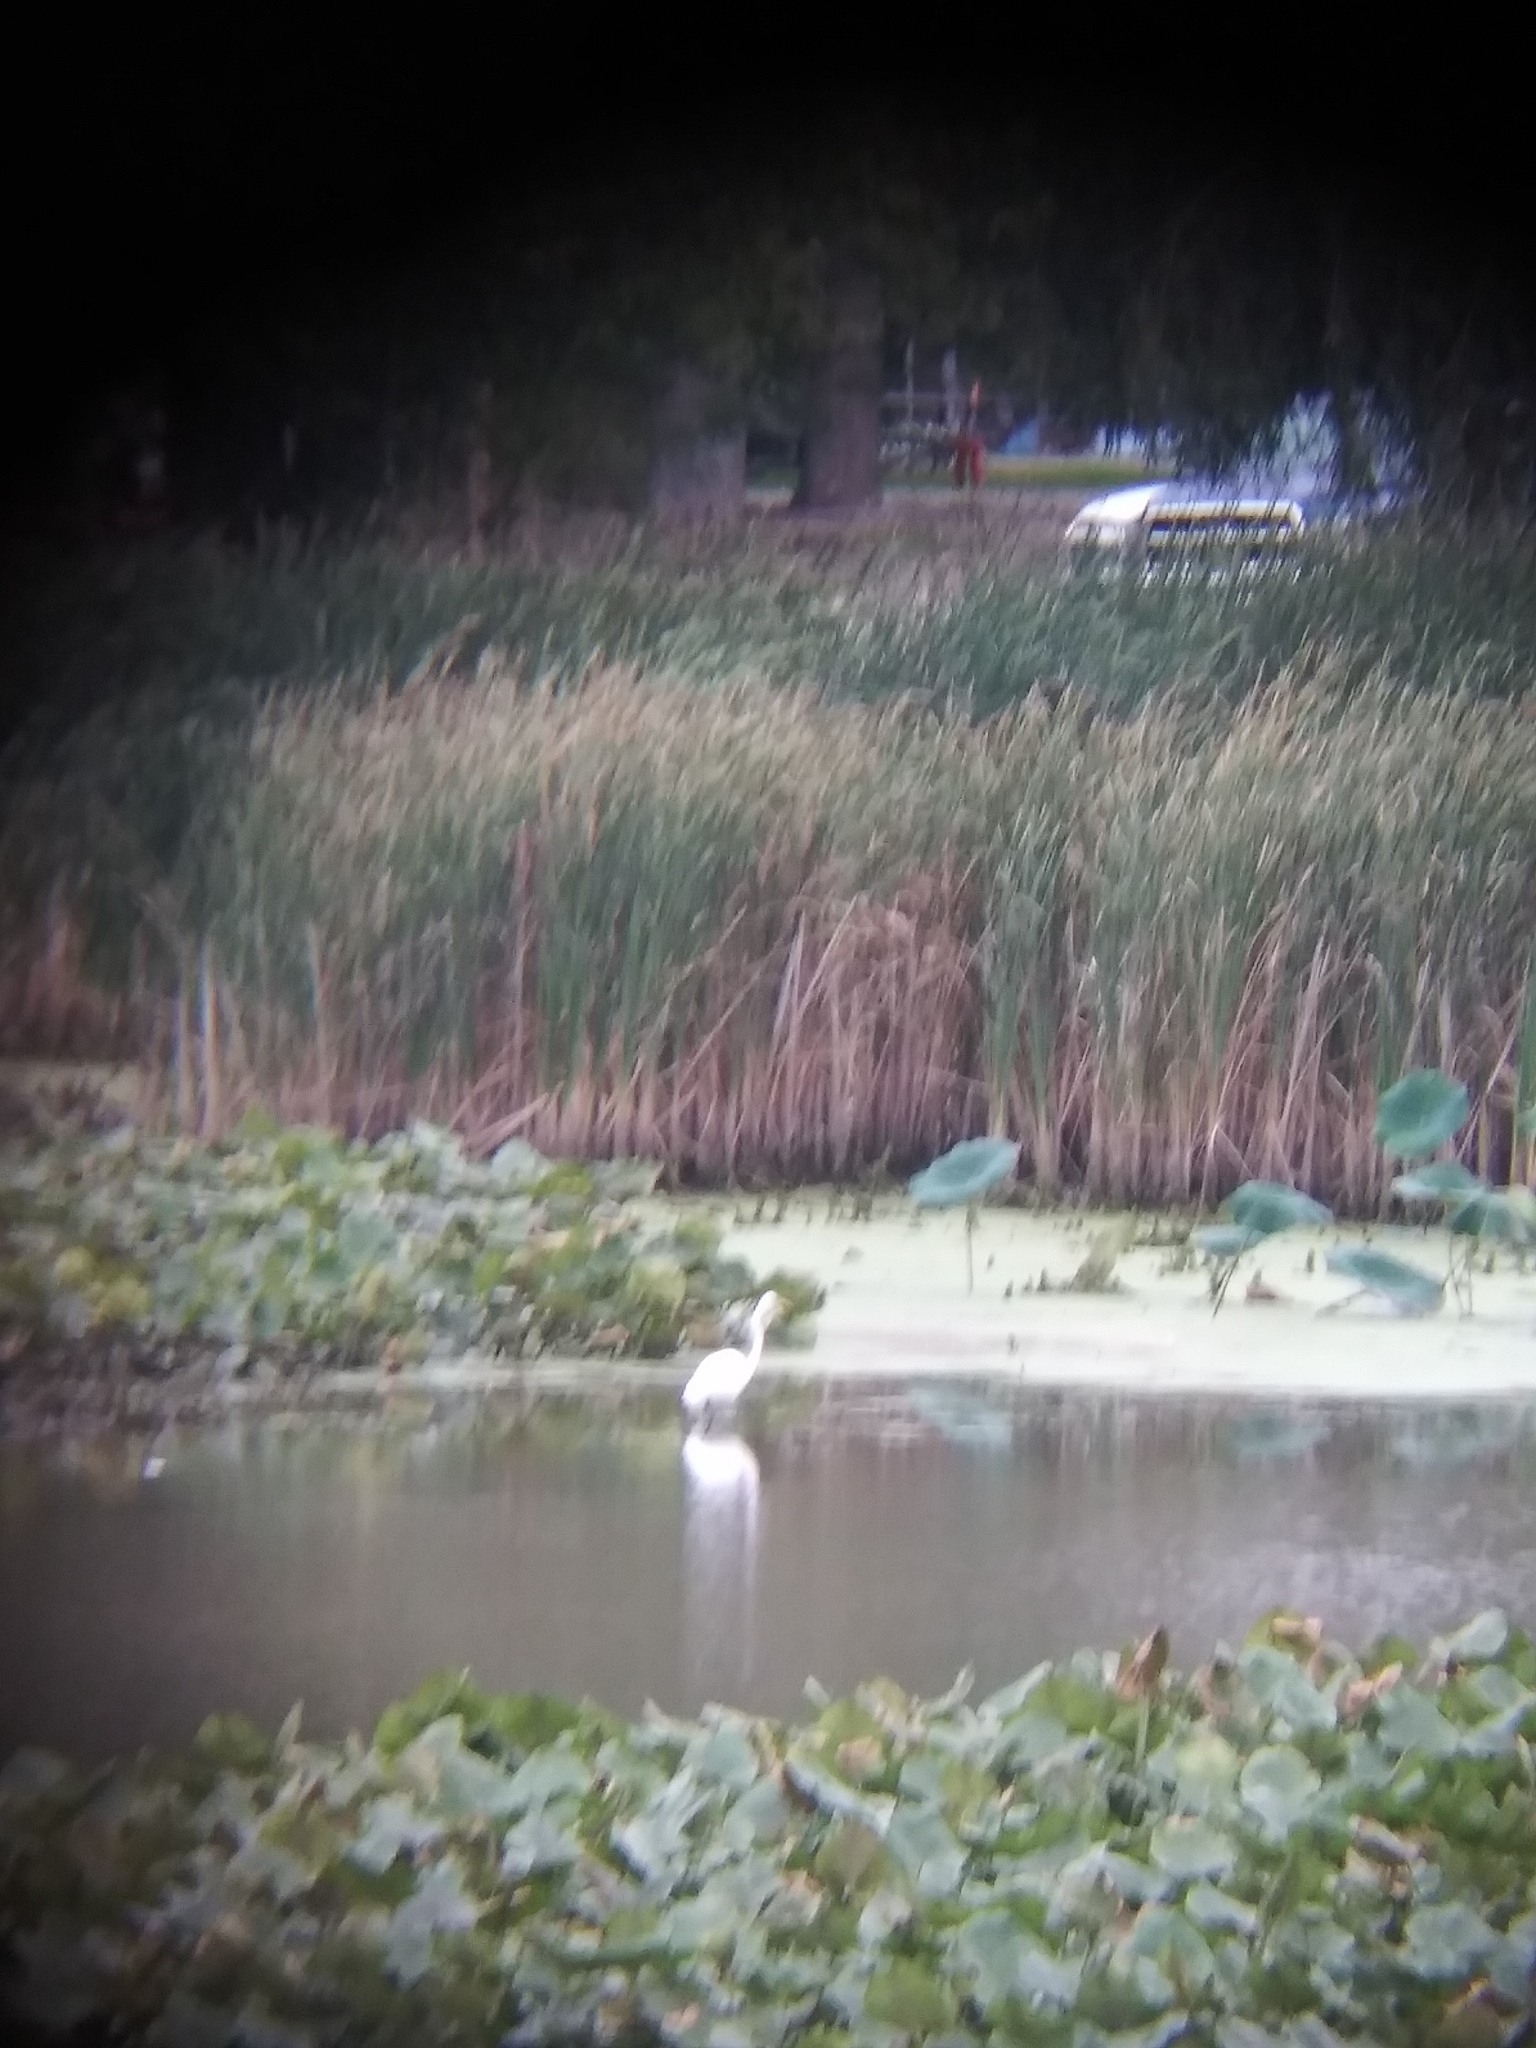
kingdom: Animalia
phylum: Chordata
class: Aves
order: Pelecaniformes
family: Ardeidae
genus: Ardea
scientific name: Ardea alba
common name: Great egret
